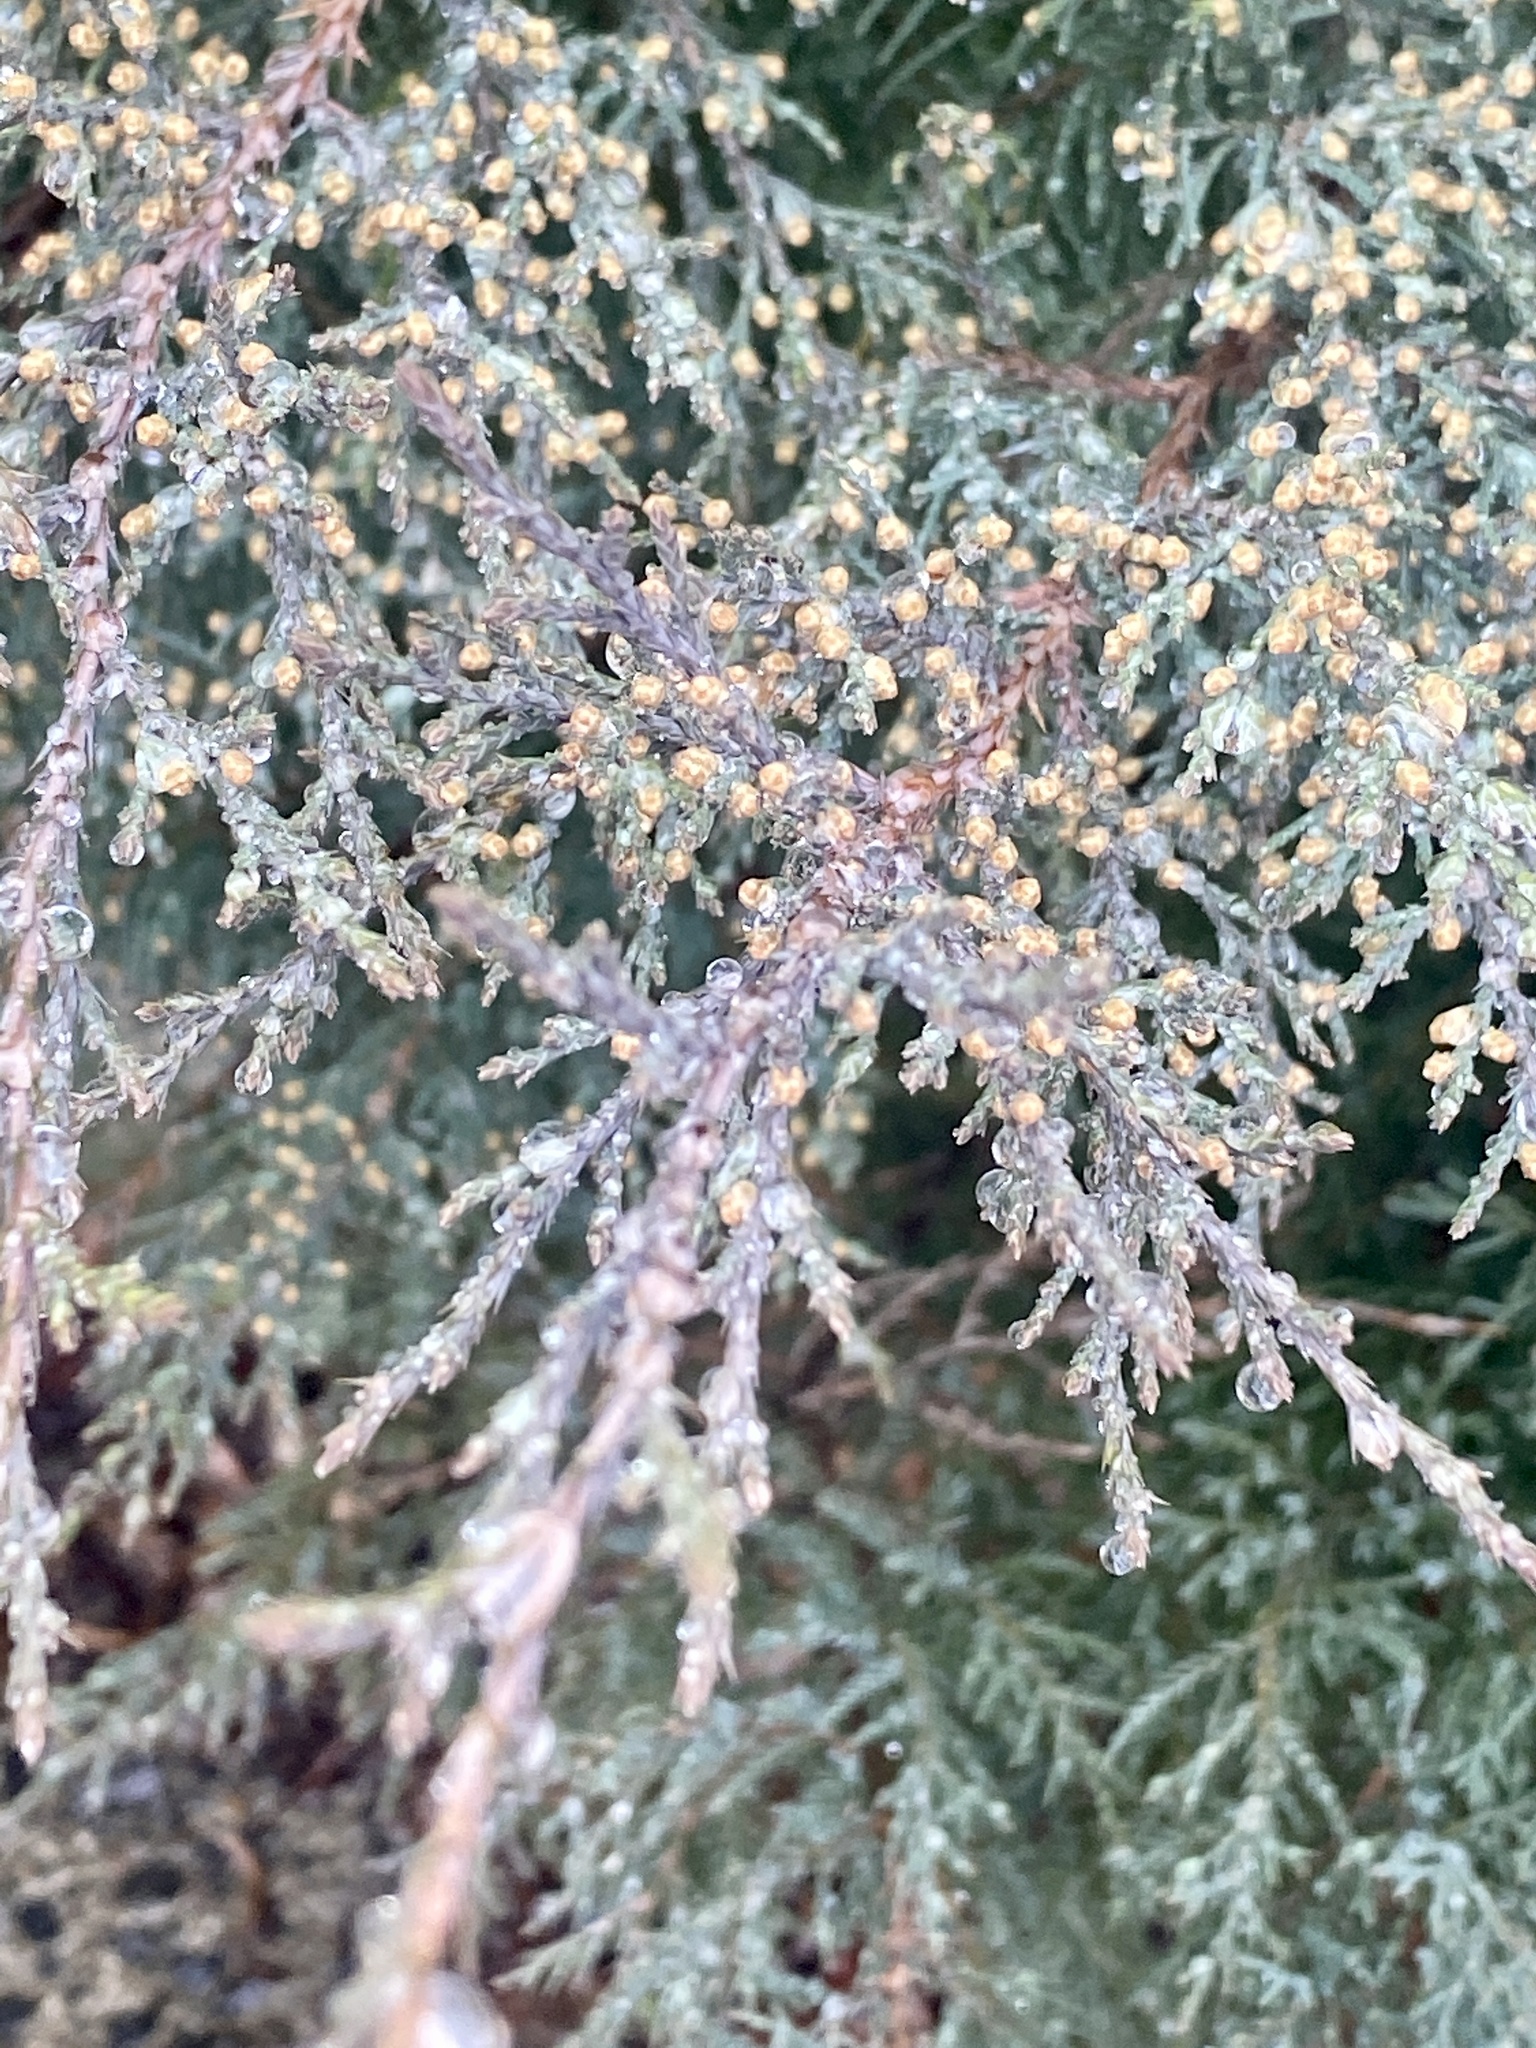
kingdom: Plantae
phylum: Tracheophyta
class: Pinopsida
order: Pinales
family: Cupressaceae
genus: Juniperus
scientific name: Juniperus virginiana
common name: Red juniper
